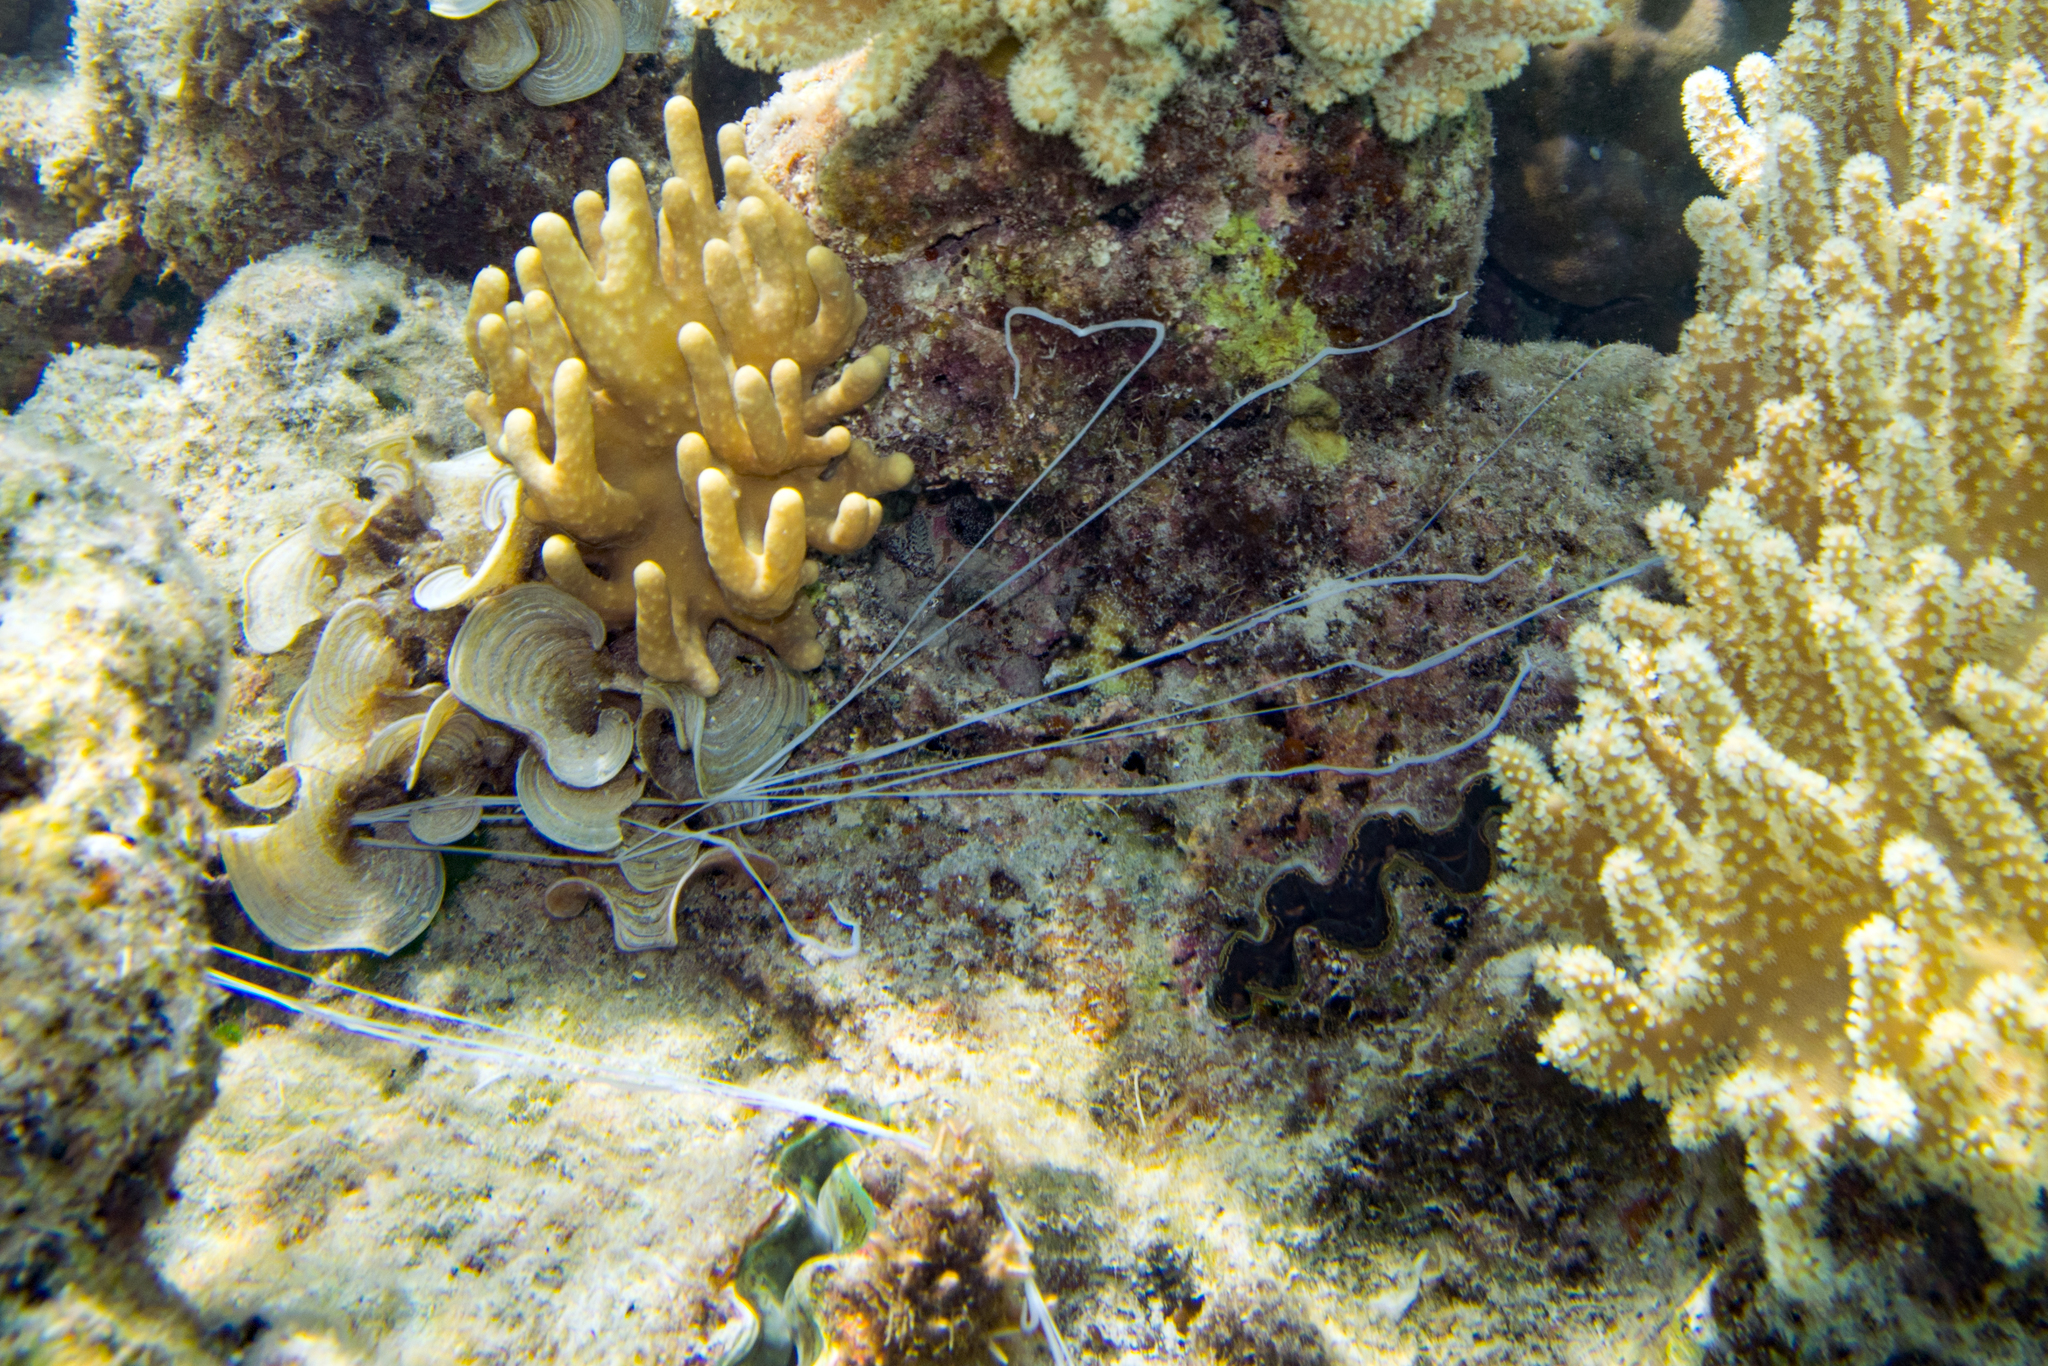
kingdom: Animalia
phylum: Annelida
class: Polychaeta
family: Terebellidae
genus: Reteterebella
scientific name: Reteterebella lirrf
